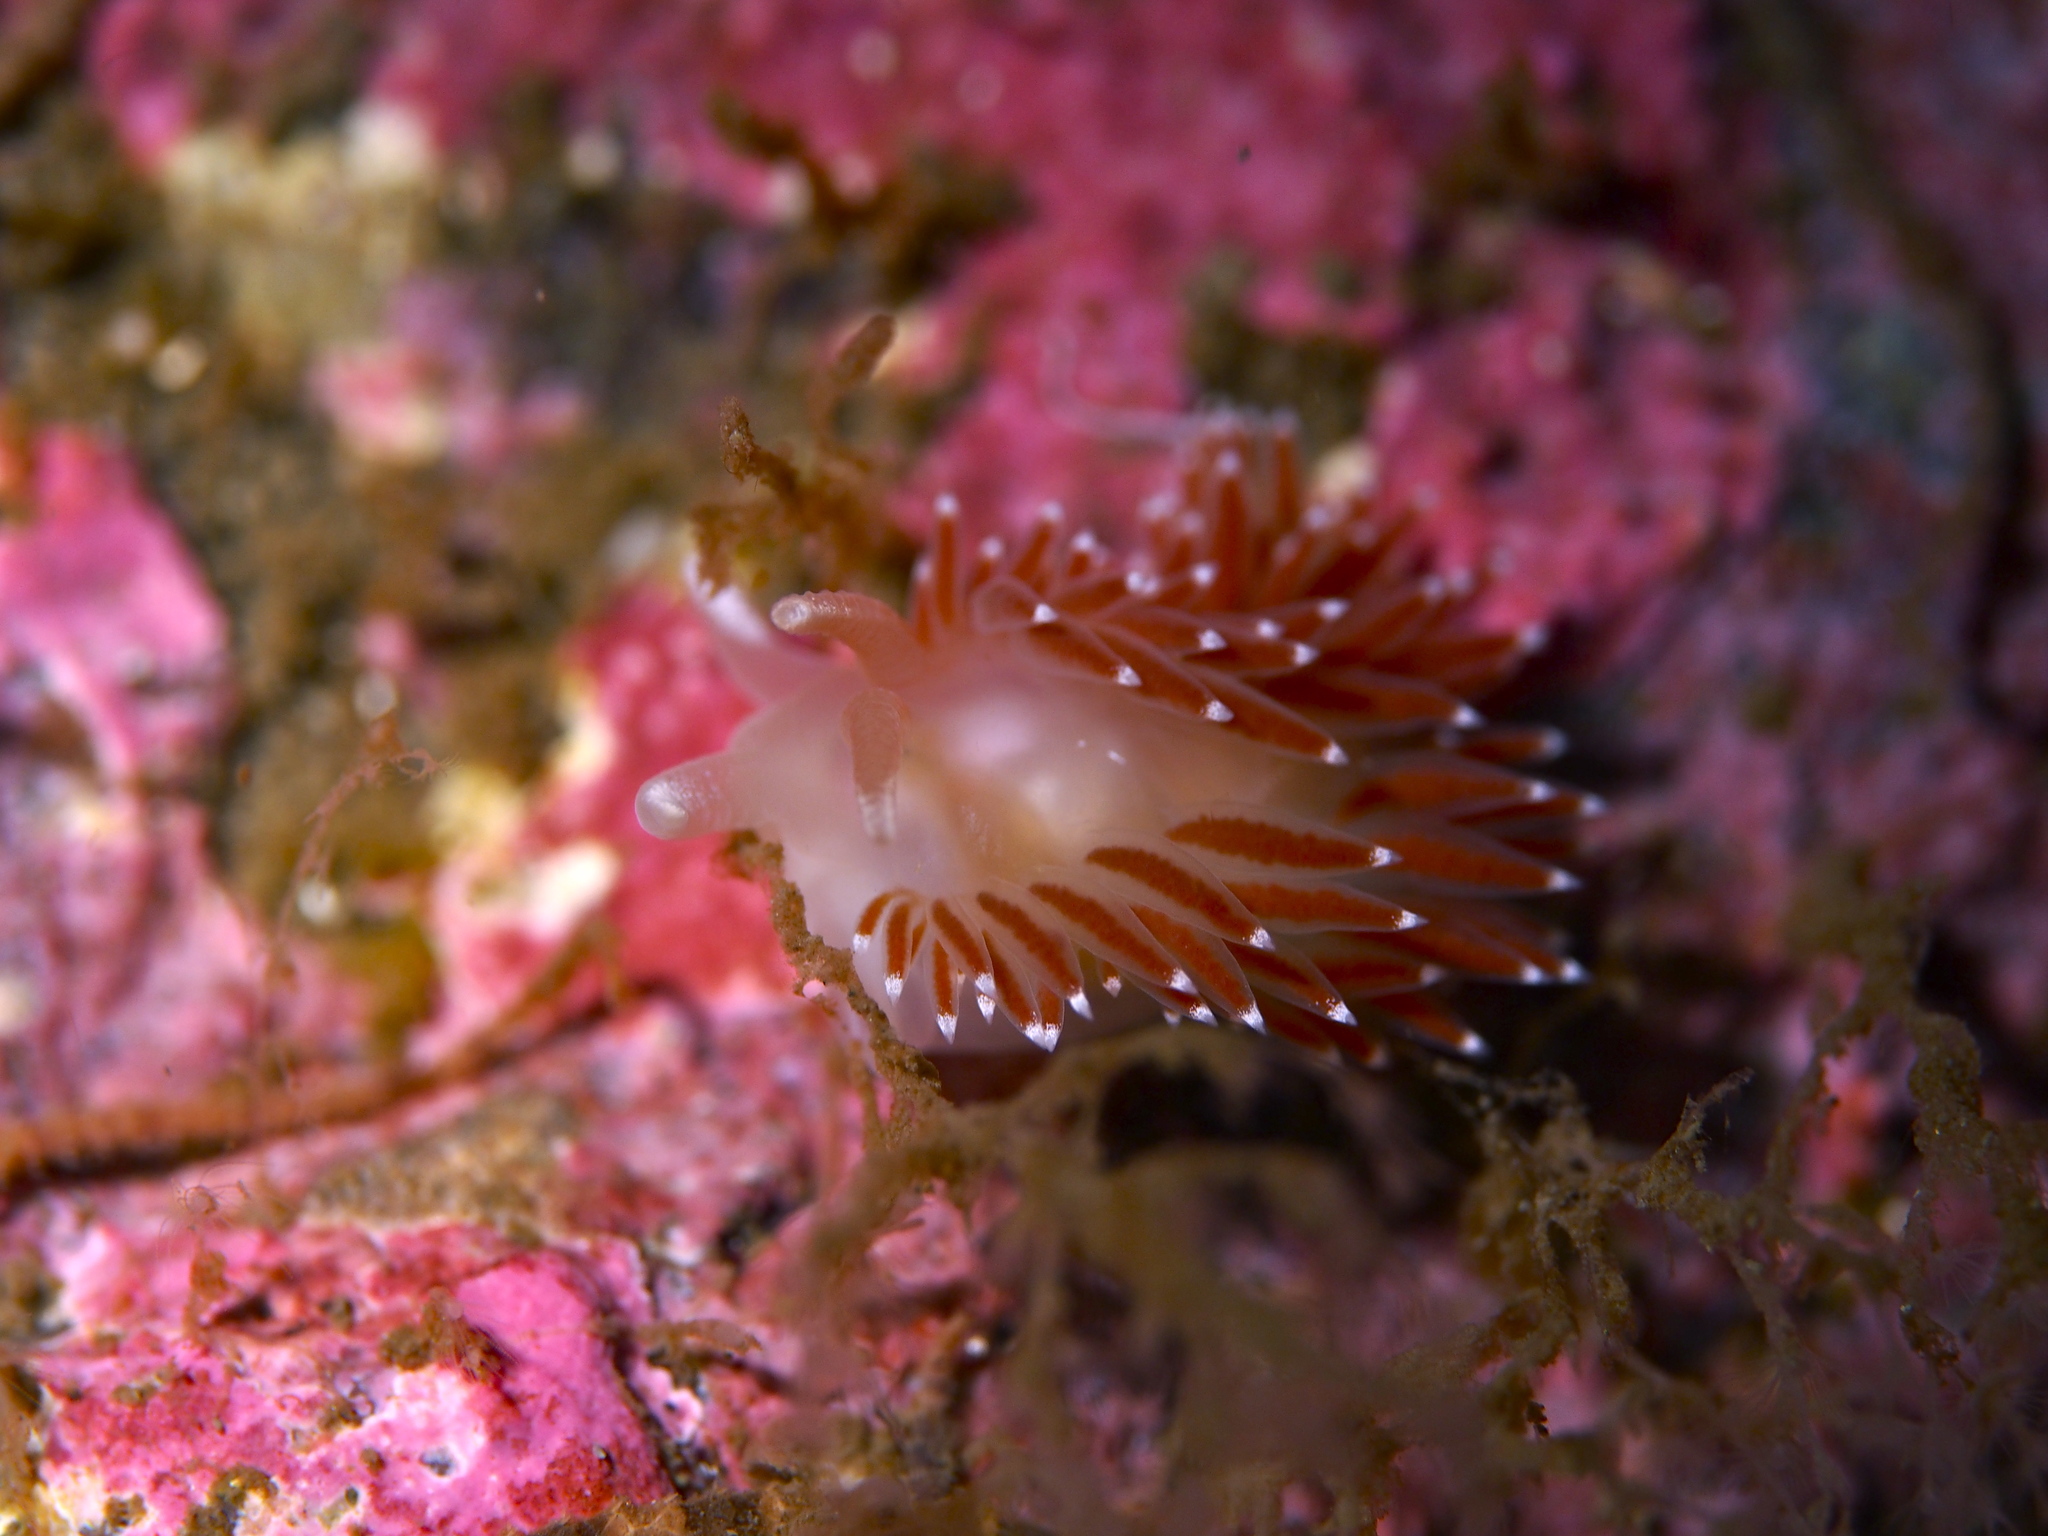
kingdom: Animalia
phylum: Mollusca
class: Gastropoda
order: Nudibranchia
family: Coryphellidae
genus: Coryphella
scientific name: Coryphella verrucosa
